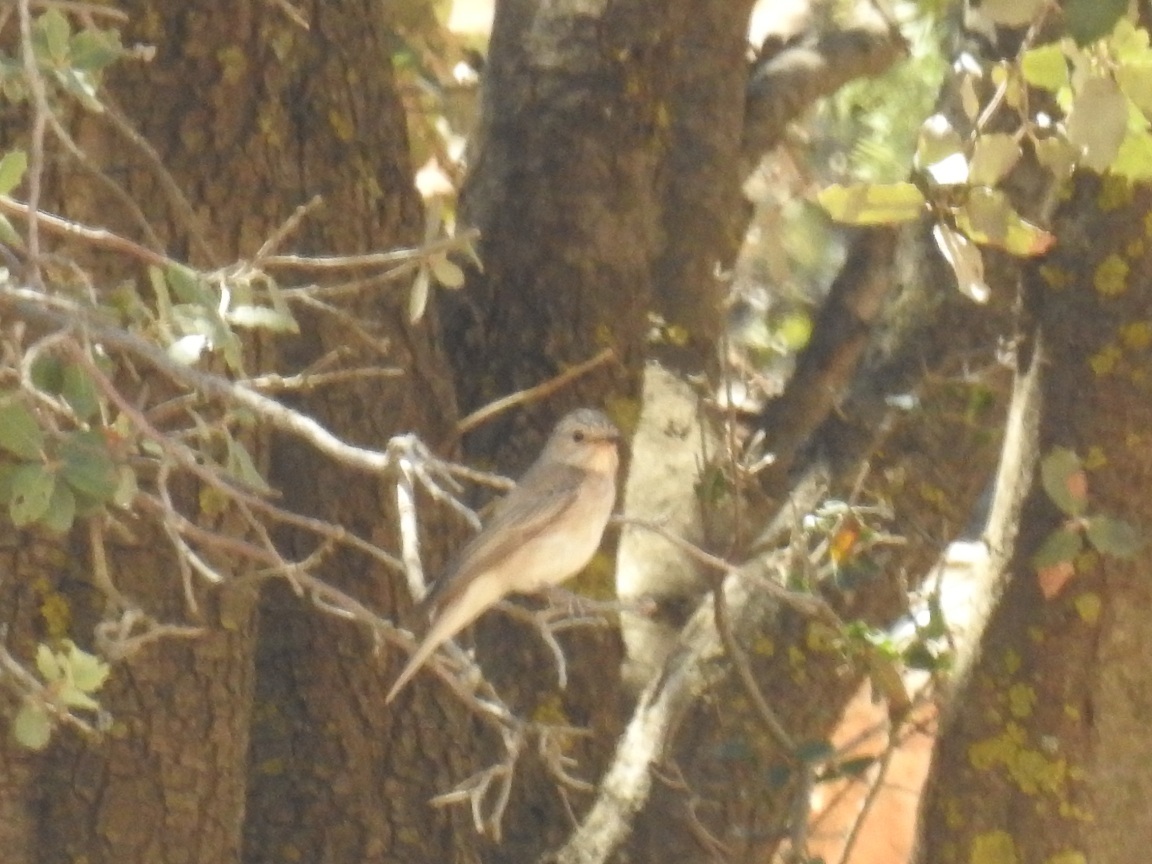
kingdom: Animalia
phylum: Chordata
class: Aves
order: Passeriformes
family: Muscicapidae
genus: Muscicapa
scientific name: Muscicapa striata
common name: Spotted flycatcher
